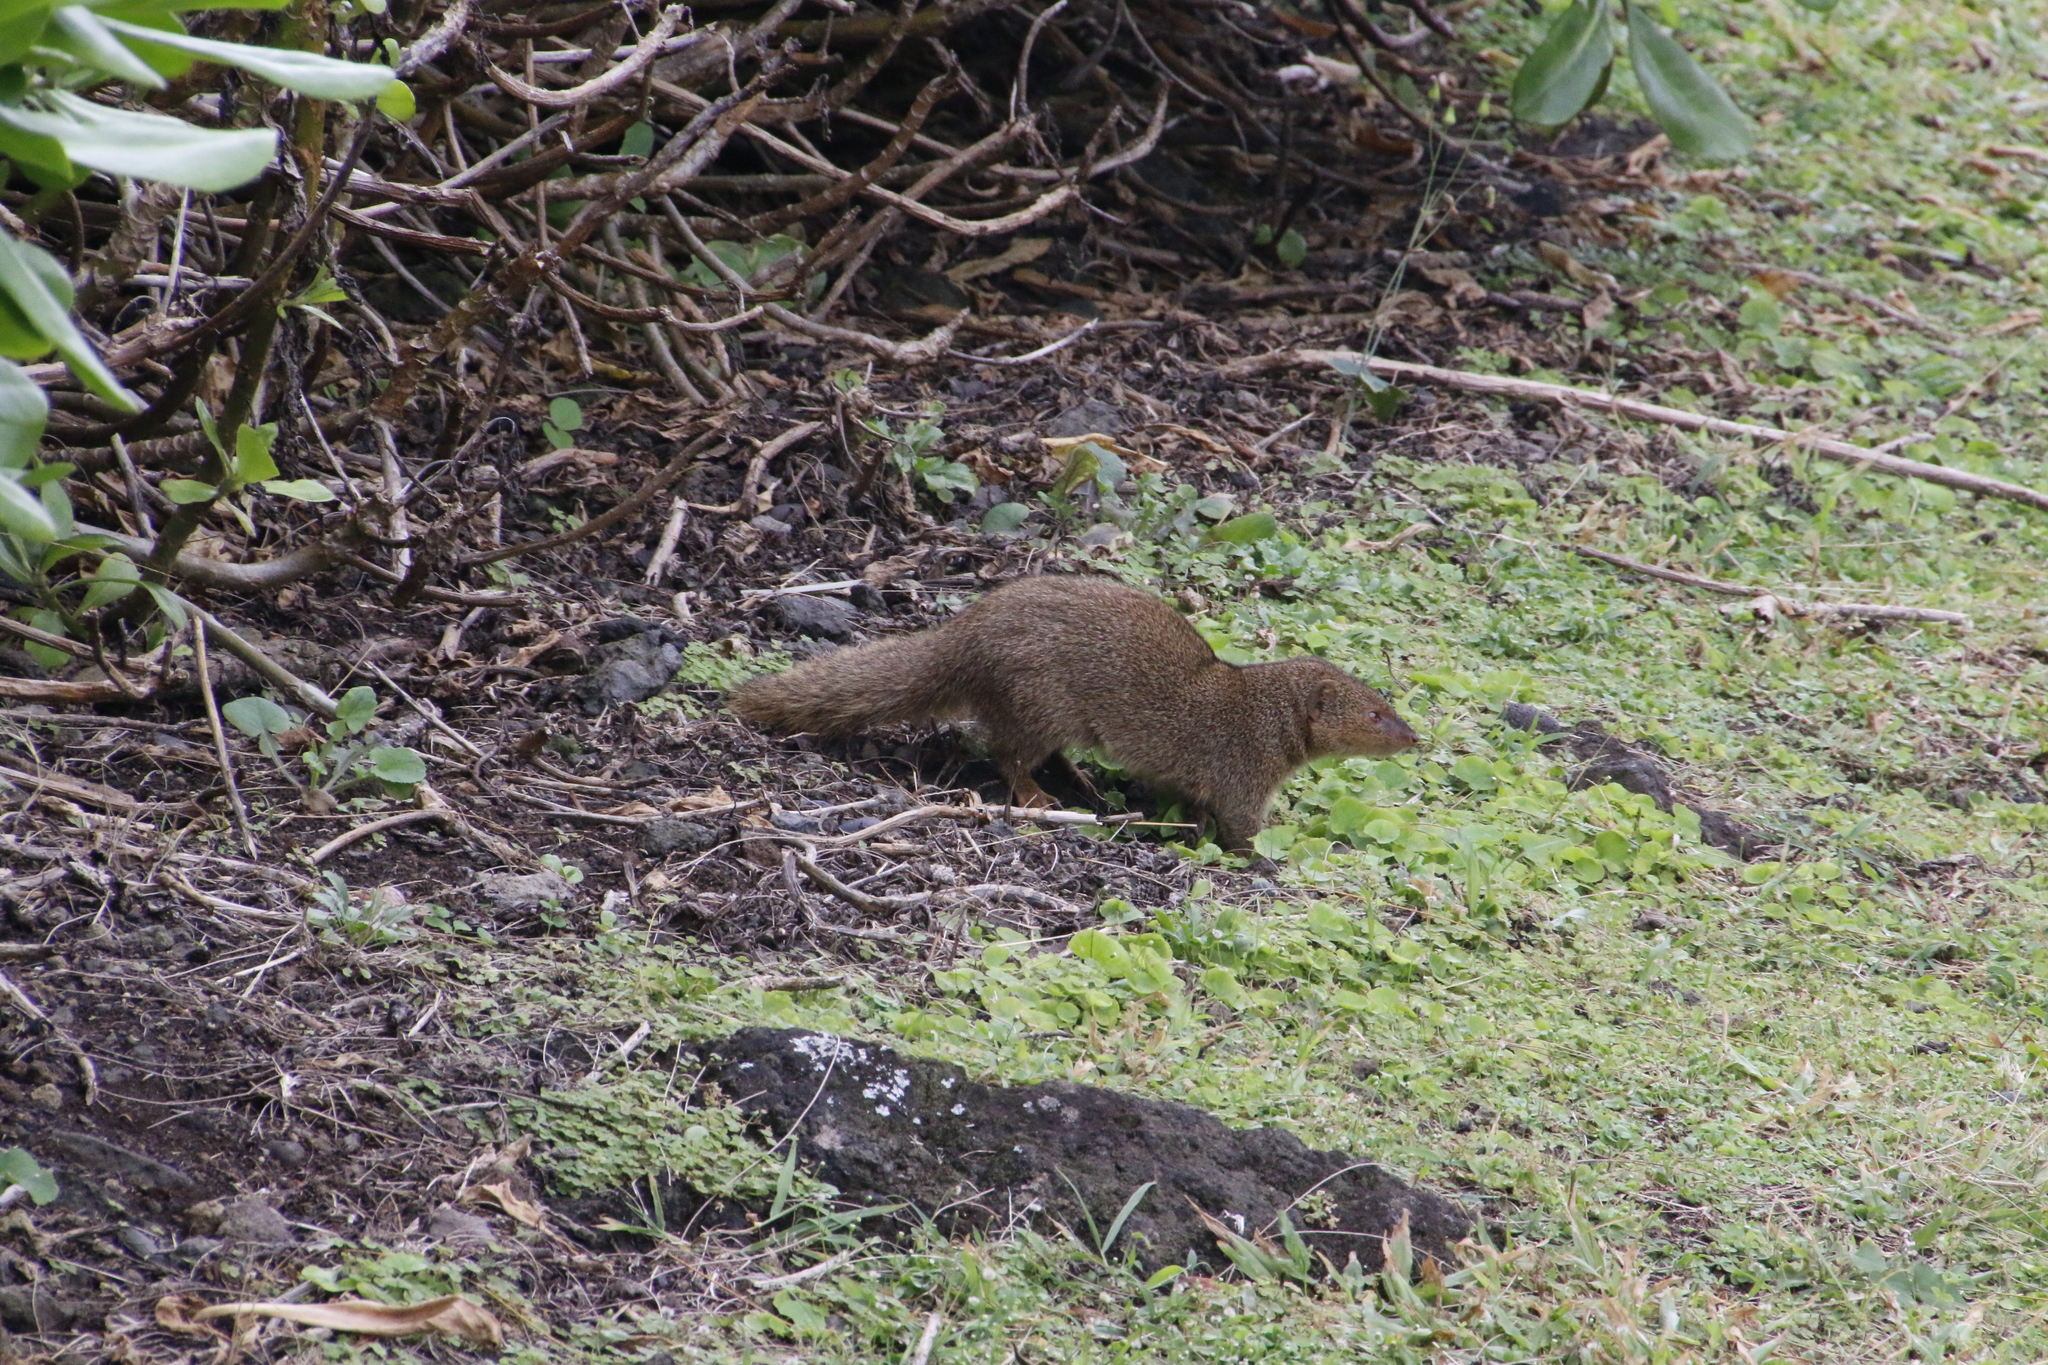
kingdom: Animalia
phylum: Chordata
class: Mammalia
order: Carnivora
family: Herpestidae
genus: Herpestes
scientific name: Herpestes javanicus
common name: Small asian mongoose
